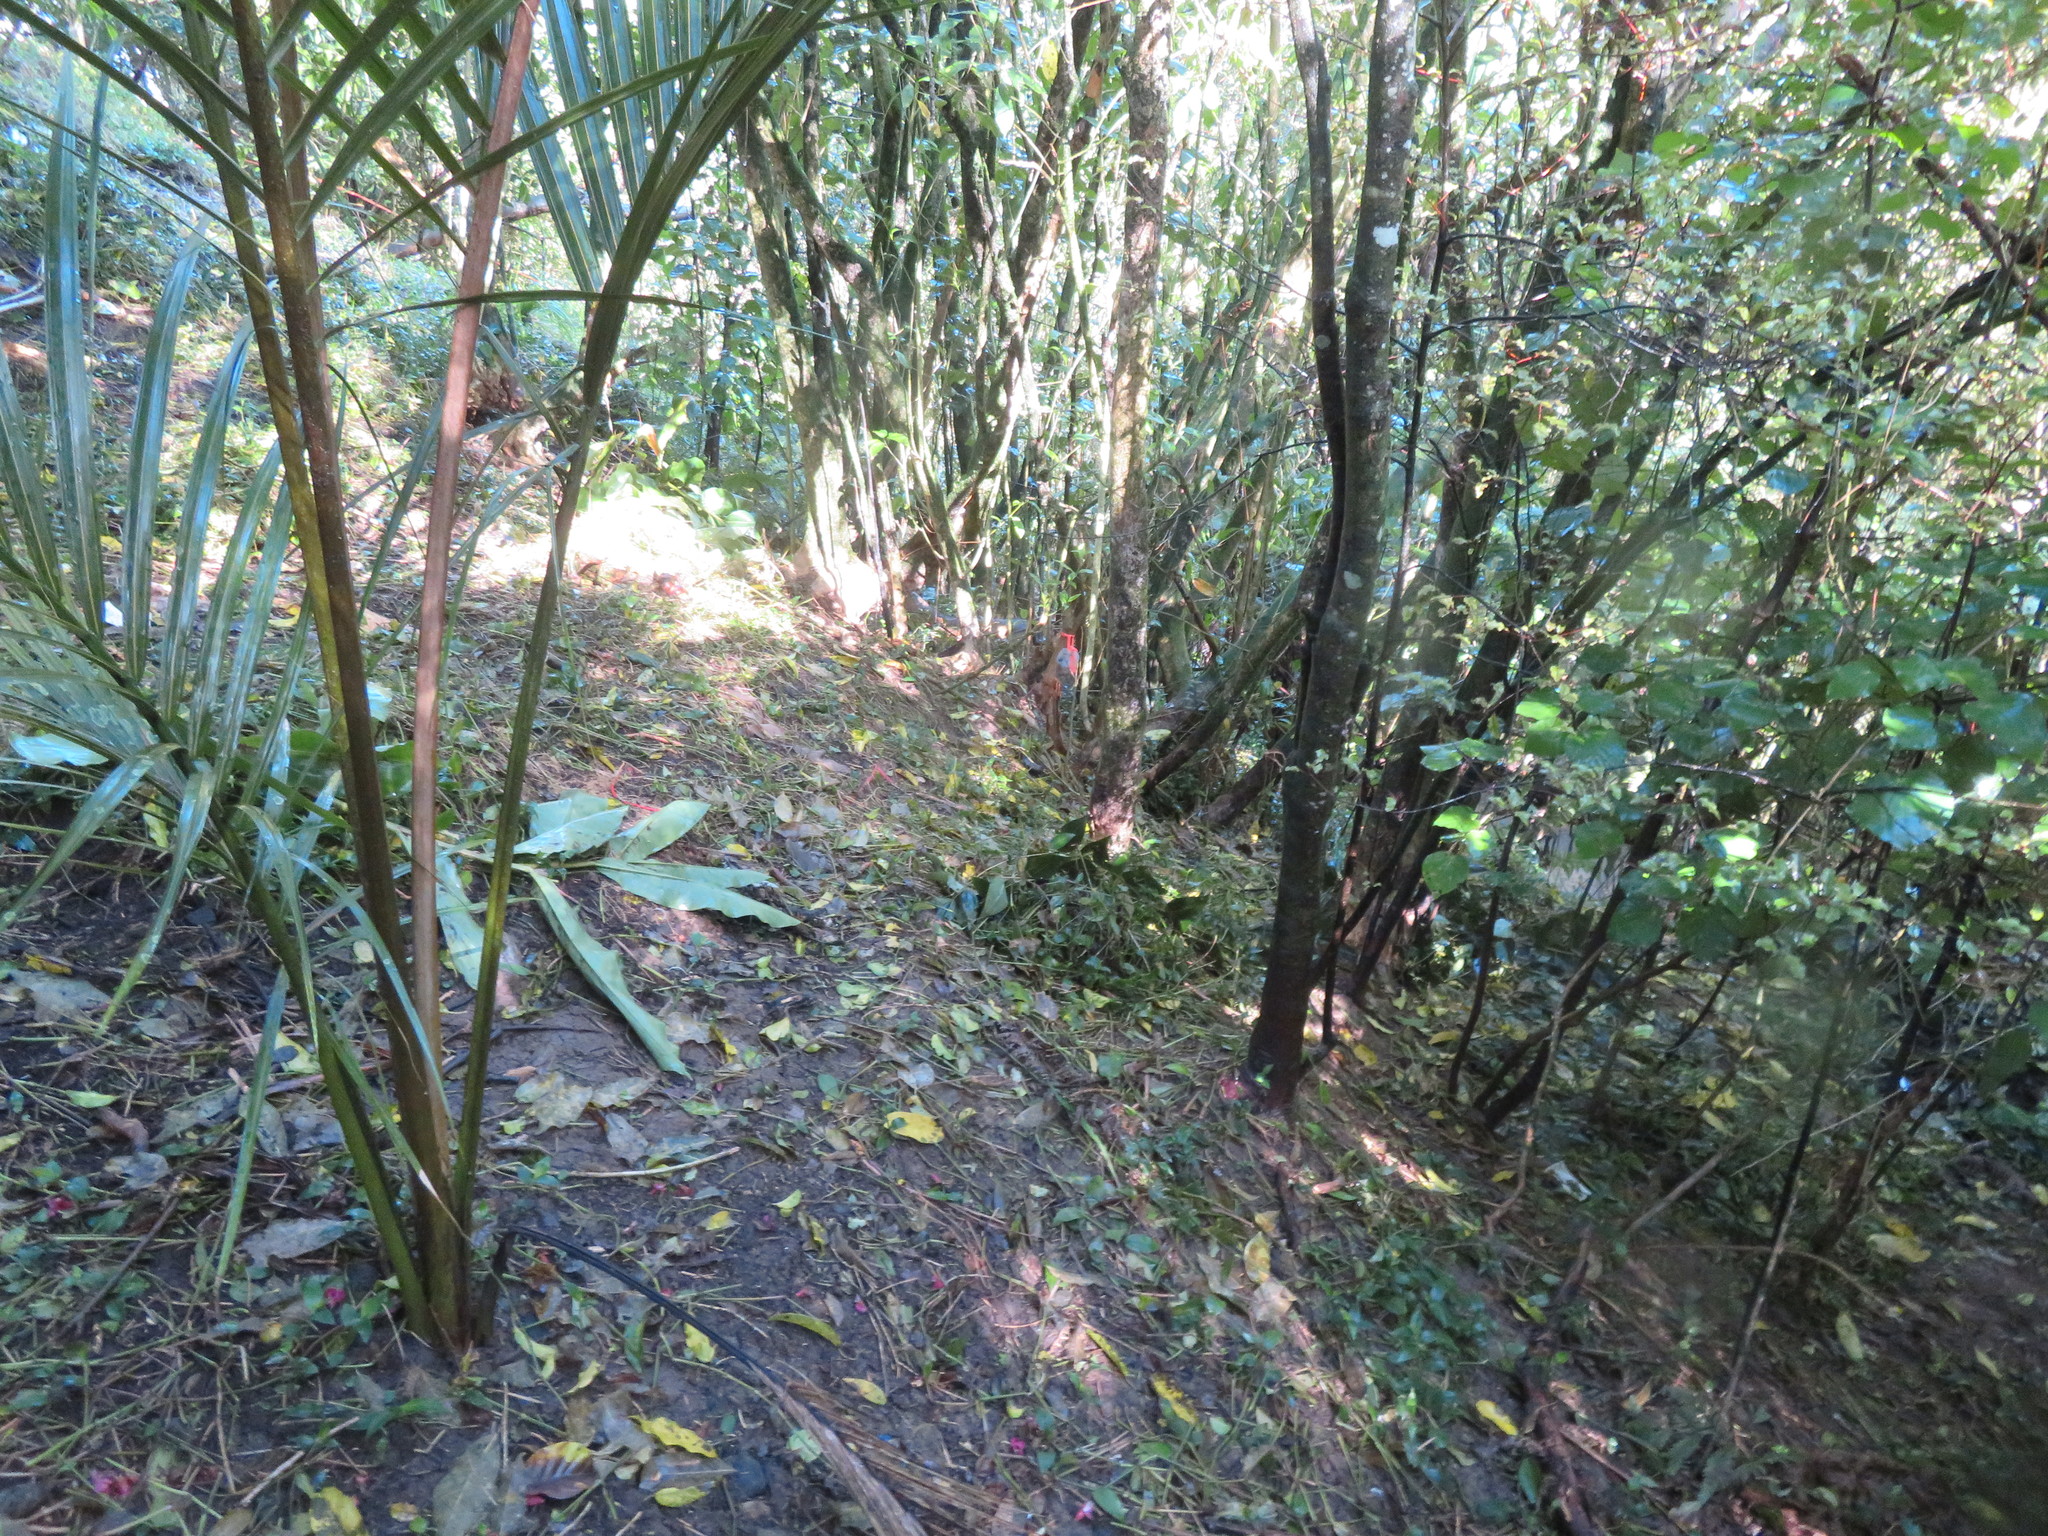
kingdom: Plantae
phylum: Tracheophyta
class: Liliopsida
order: Zingiberales
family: Zingiberaceae
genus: Hedychium
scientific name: Hedychium gardnerianum
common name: Himalayan ginger
